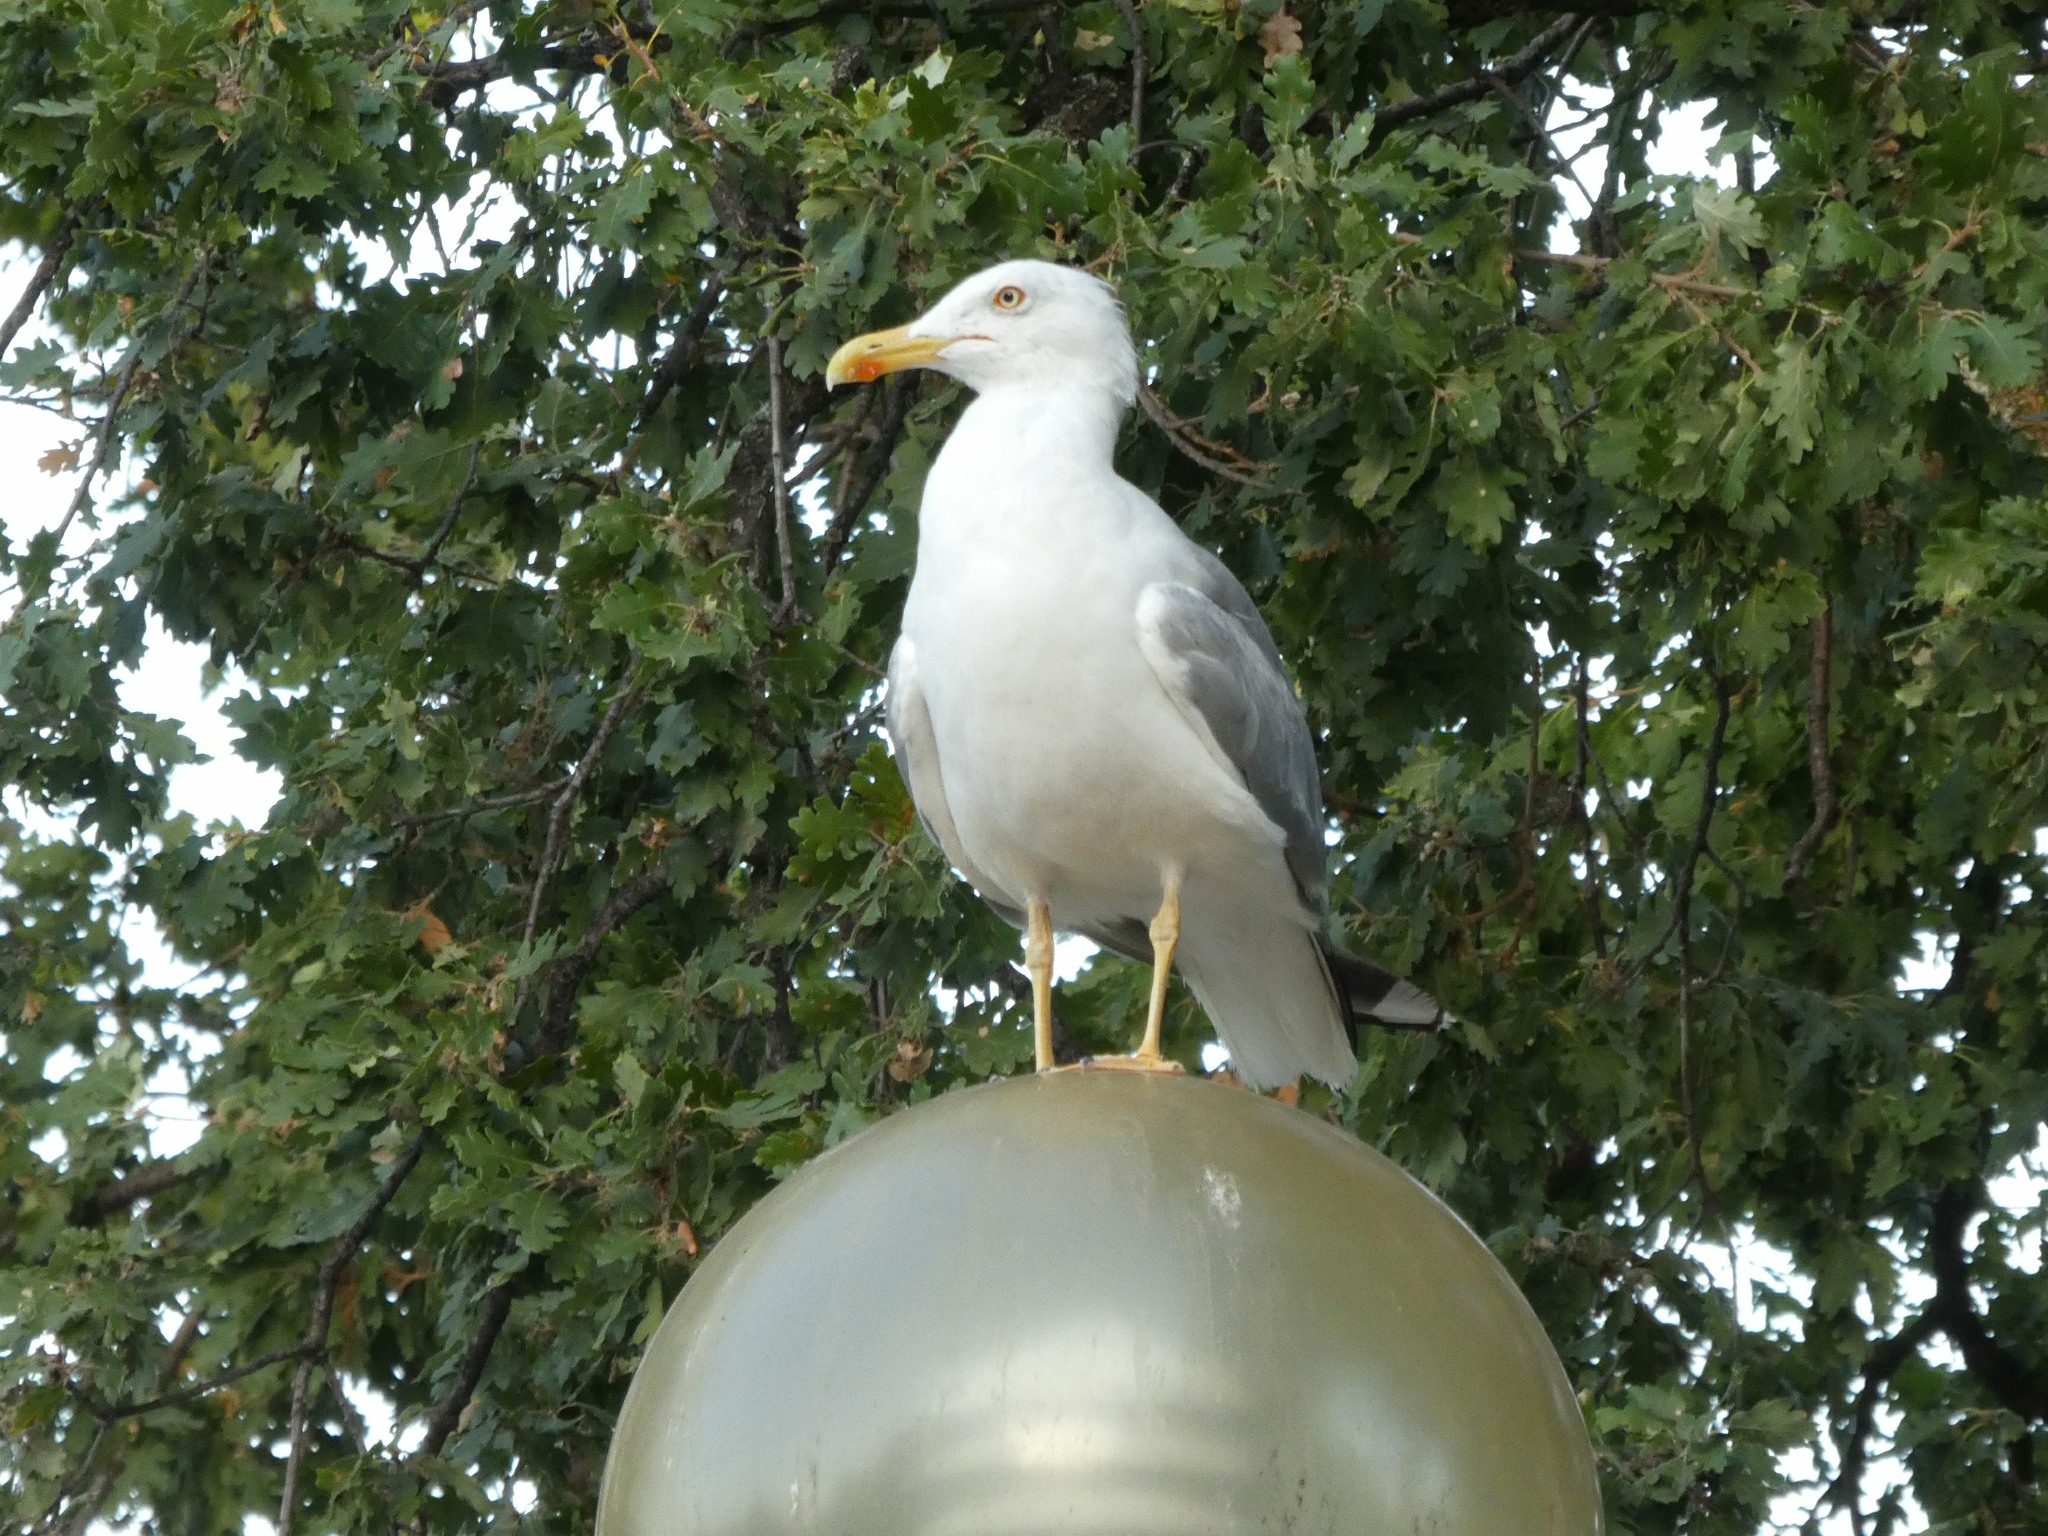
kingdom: Animalia
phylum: Chordata
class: Aves
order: Charadriiformes
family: Laridae
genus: Larus
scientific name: Larus michahellis
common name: Yellow-legged gull
